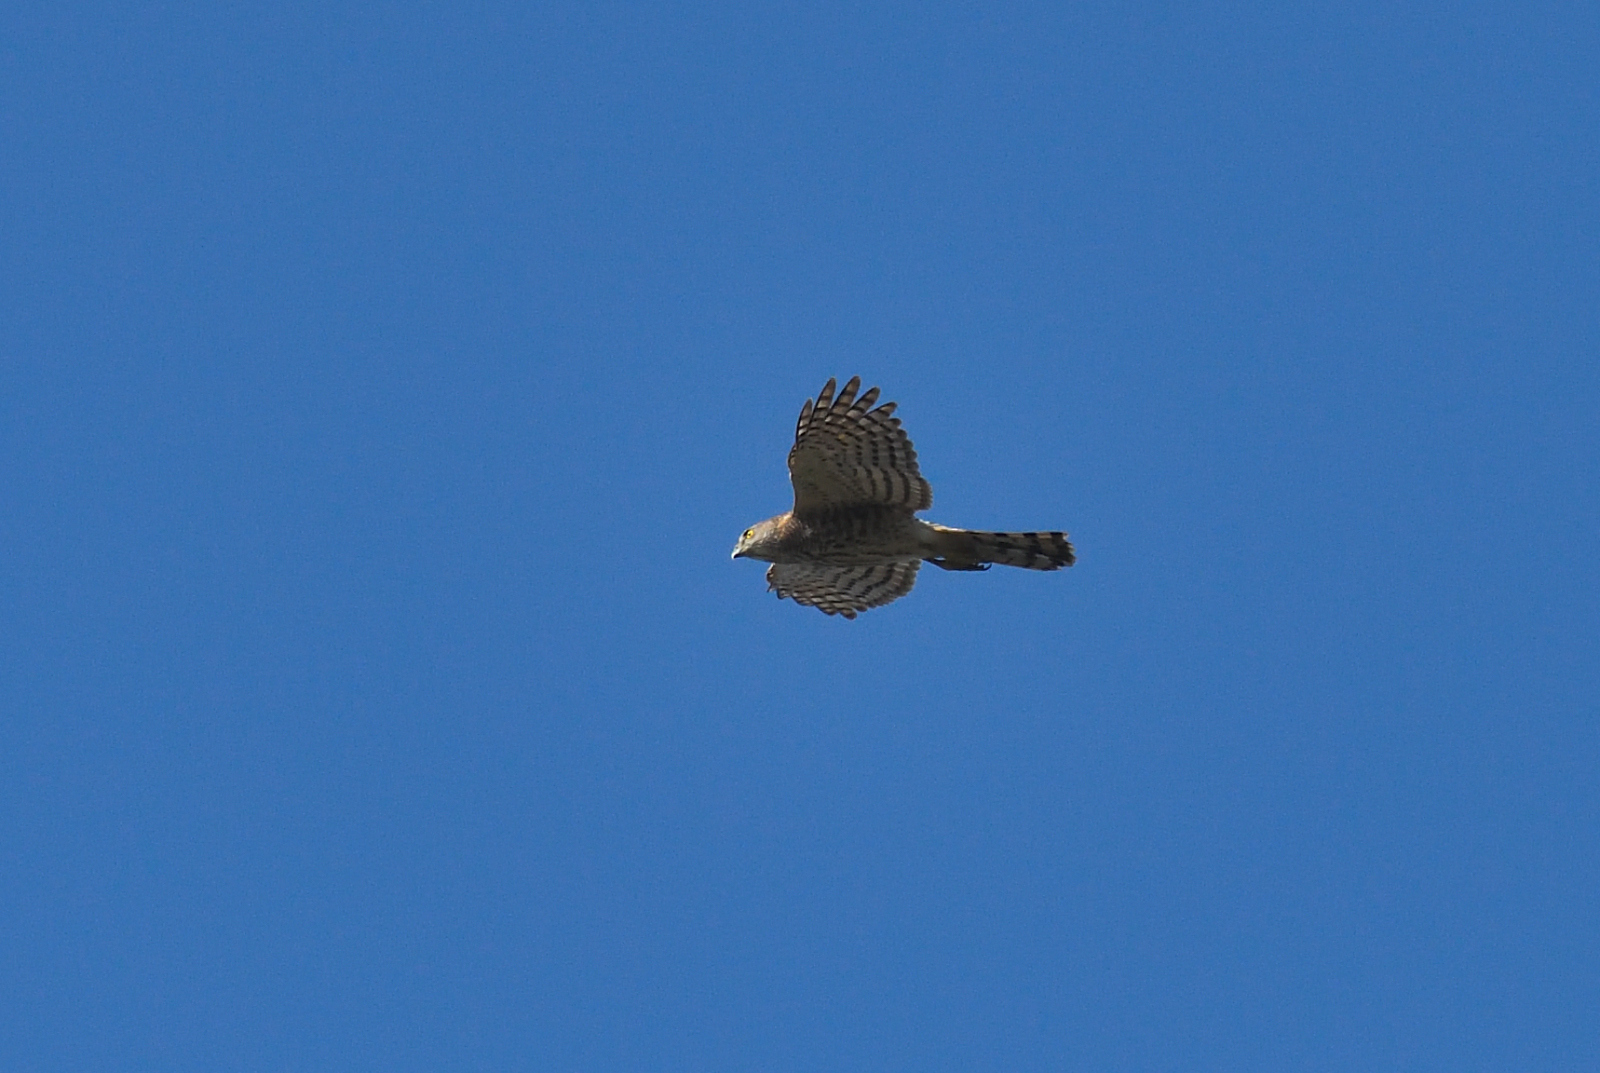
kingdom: Animalia
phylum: Chordata
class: Aves
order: Accipitriformes
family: Accipitridae
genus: Accipiter
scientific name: Accipiter badius
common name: Shikra
